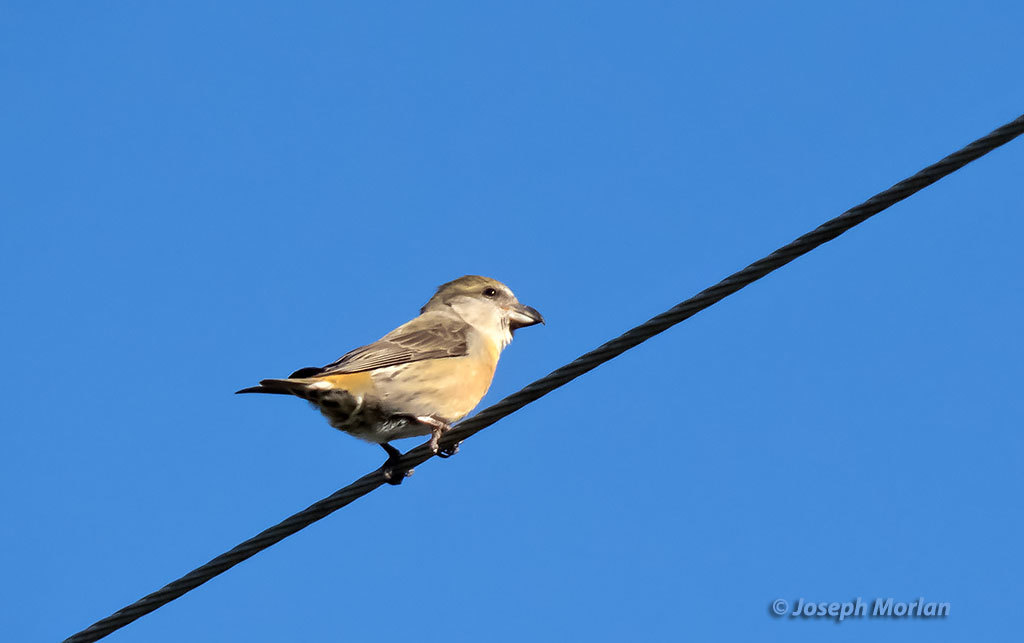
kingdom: Animalia
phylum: Chordata
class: Aves
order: Passeriformes
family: Fringillidae
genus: Loxia
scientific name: Loxia curvirostra
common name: Red crossbill
